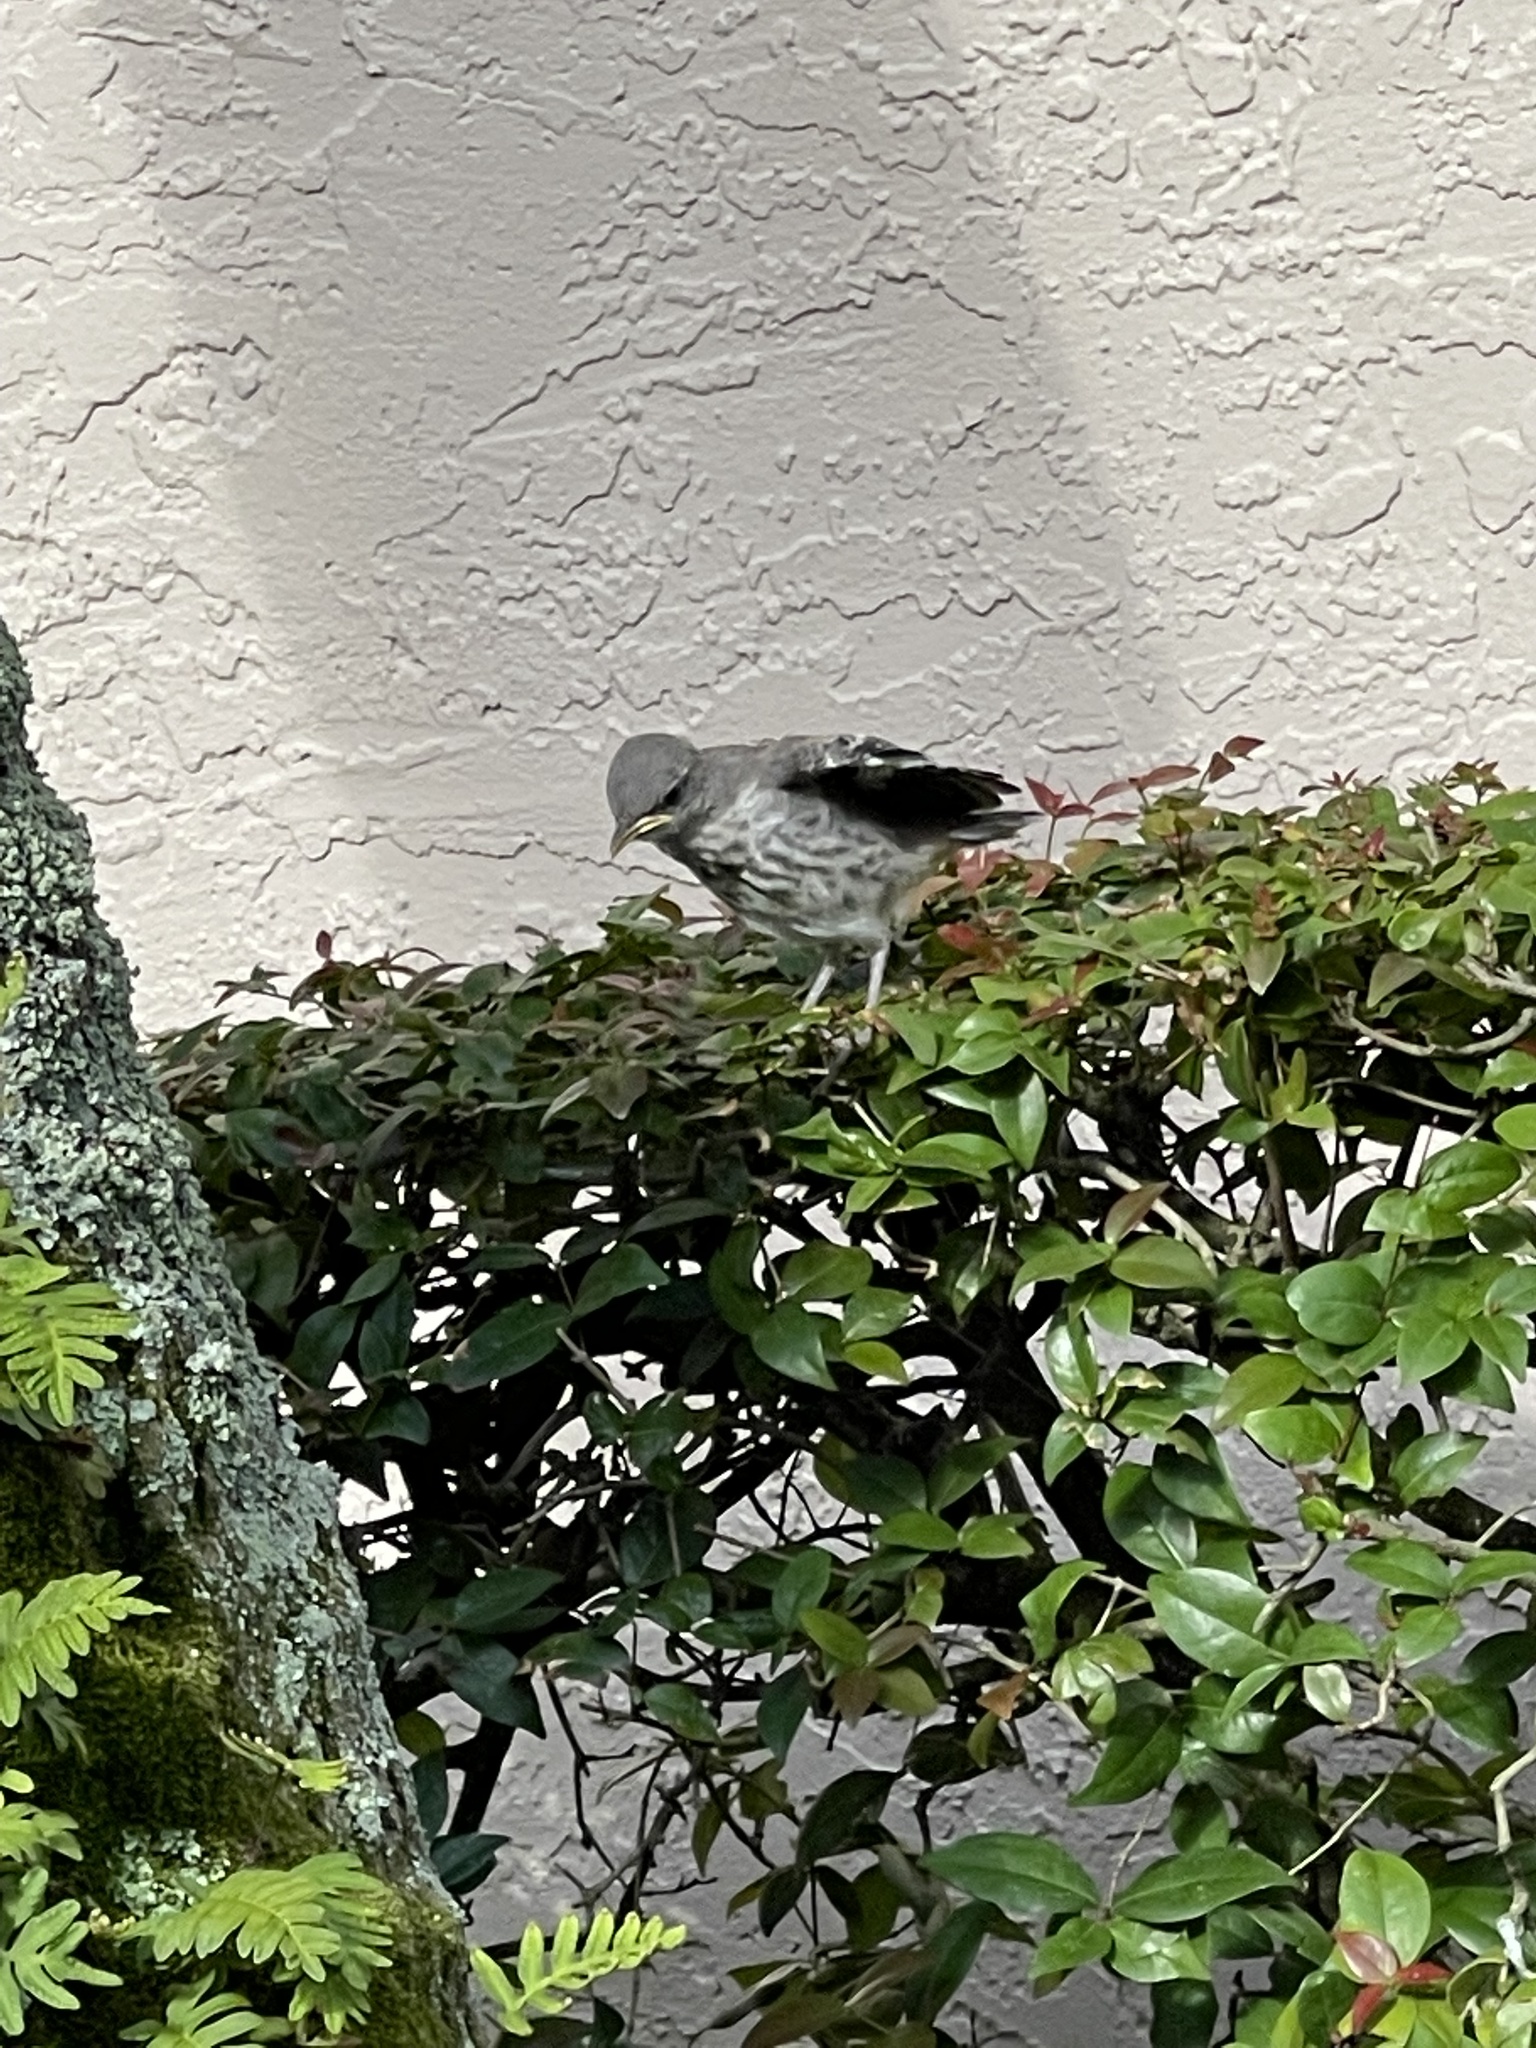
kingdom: Animalia
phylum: Chordata
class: Aves
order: Passeriformes
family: Mimidae
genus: Mimus
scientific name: Mimus polyglottos
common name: Northern mockingbird
